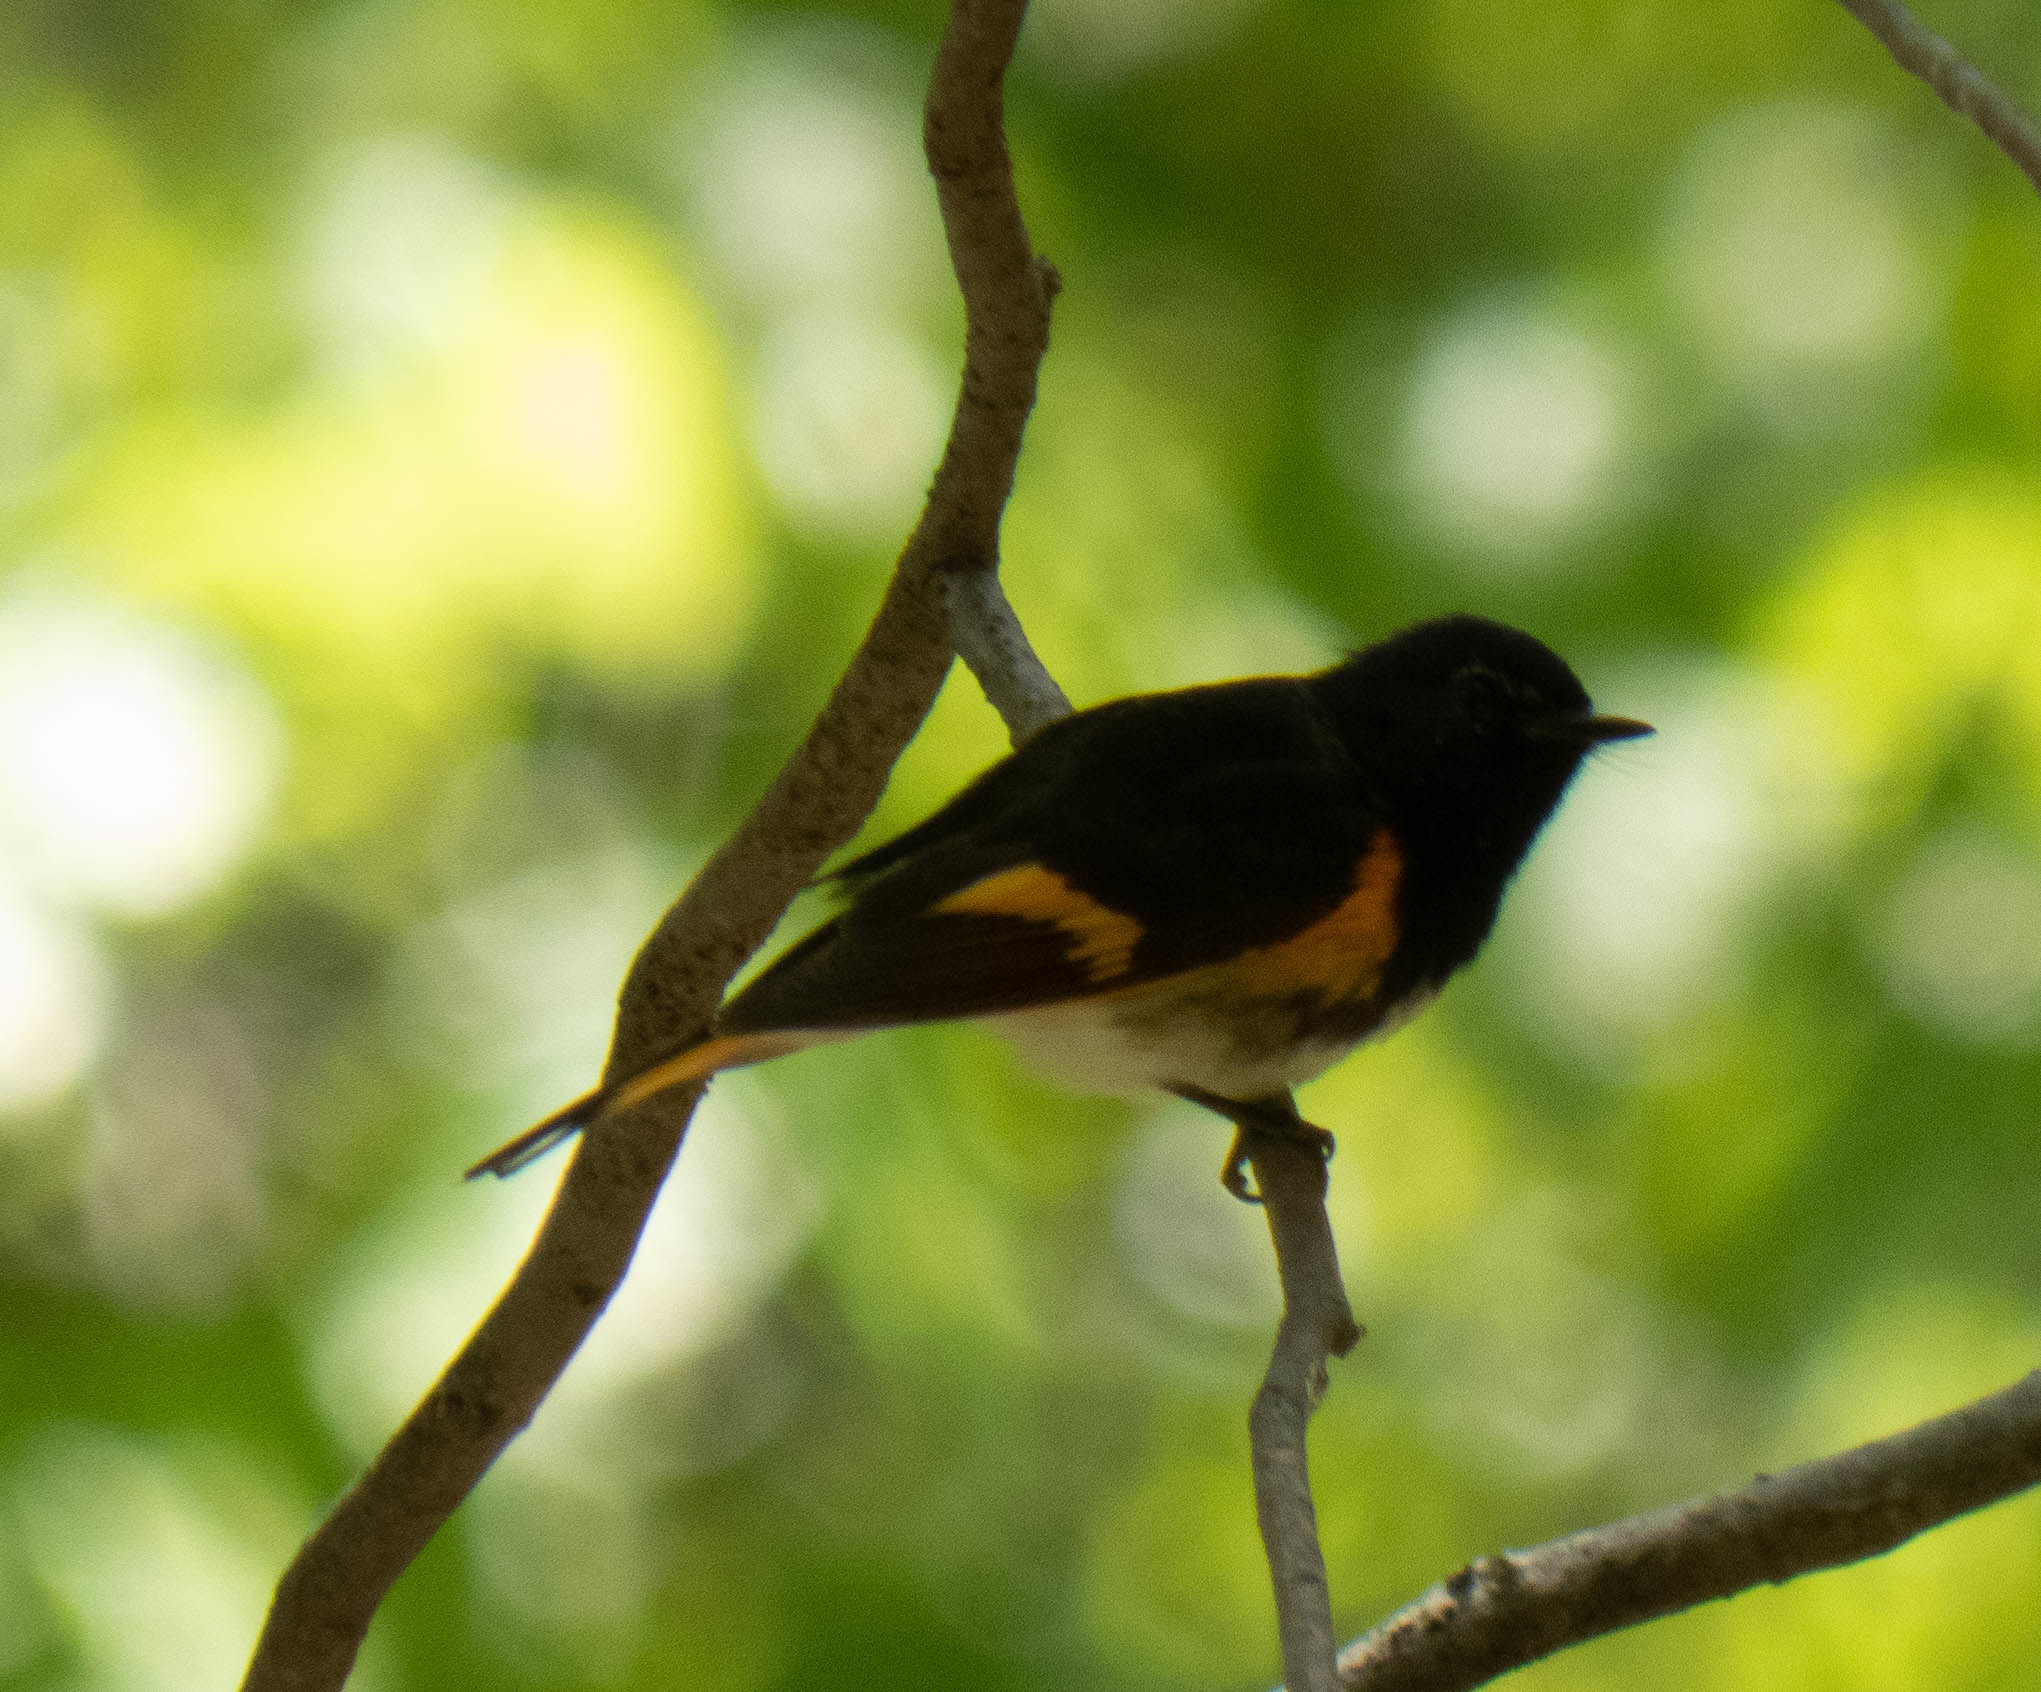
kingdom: Animalia
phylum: Chordata
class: Aves
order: Passeriformes
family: Parulidae
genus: Setophaga
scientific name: Setophaga ruticilla
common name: American redstart
